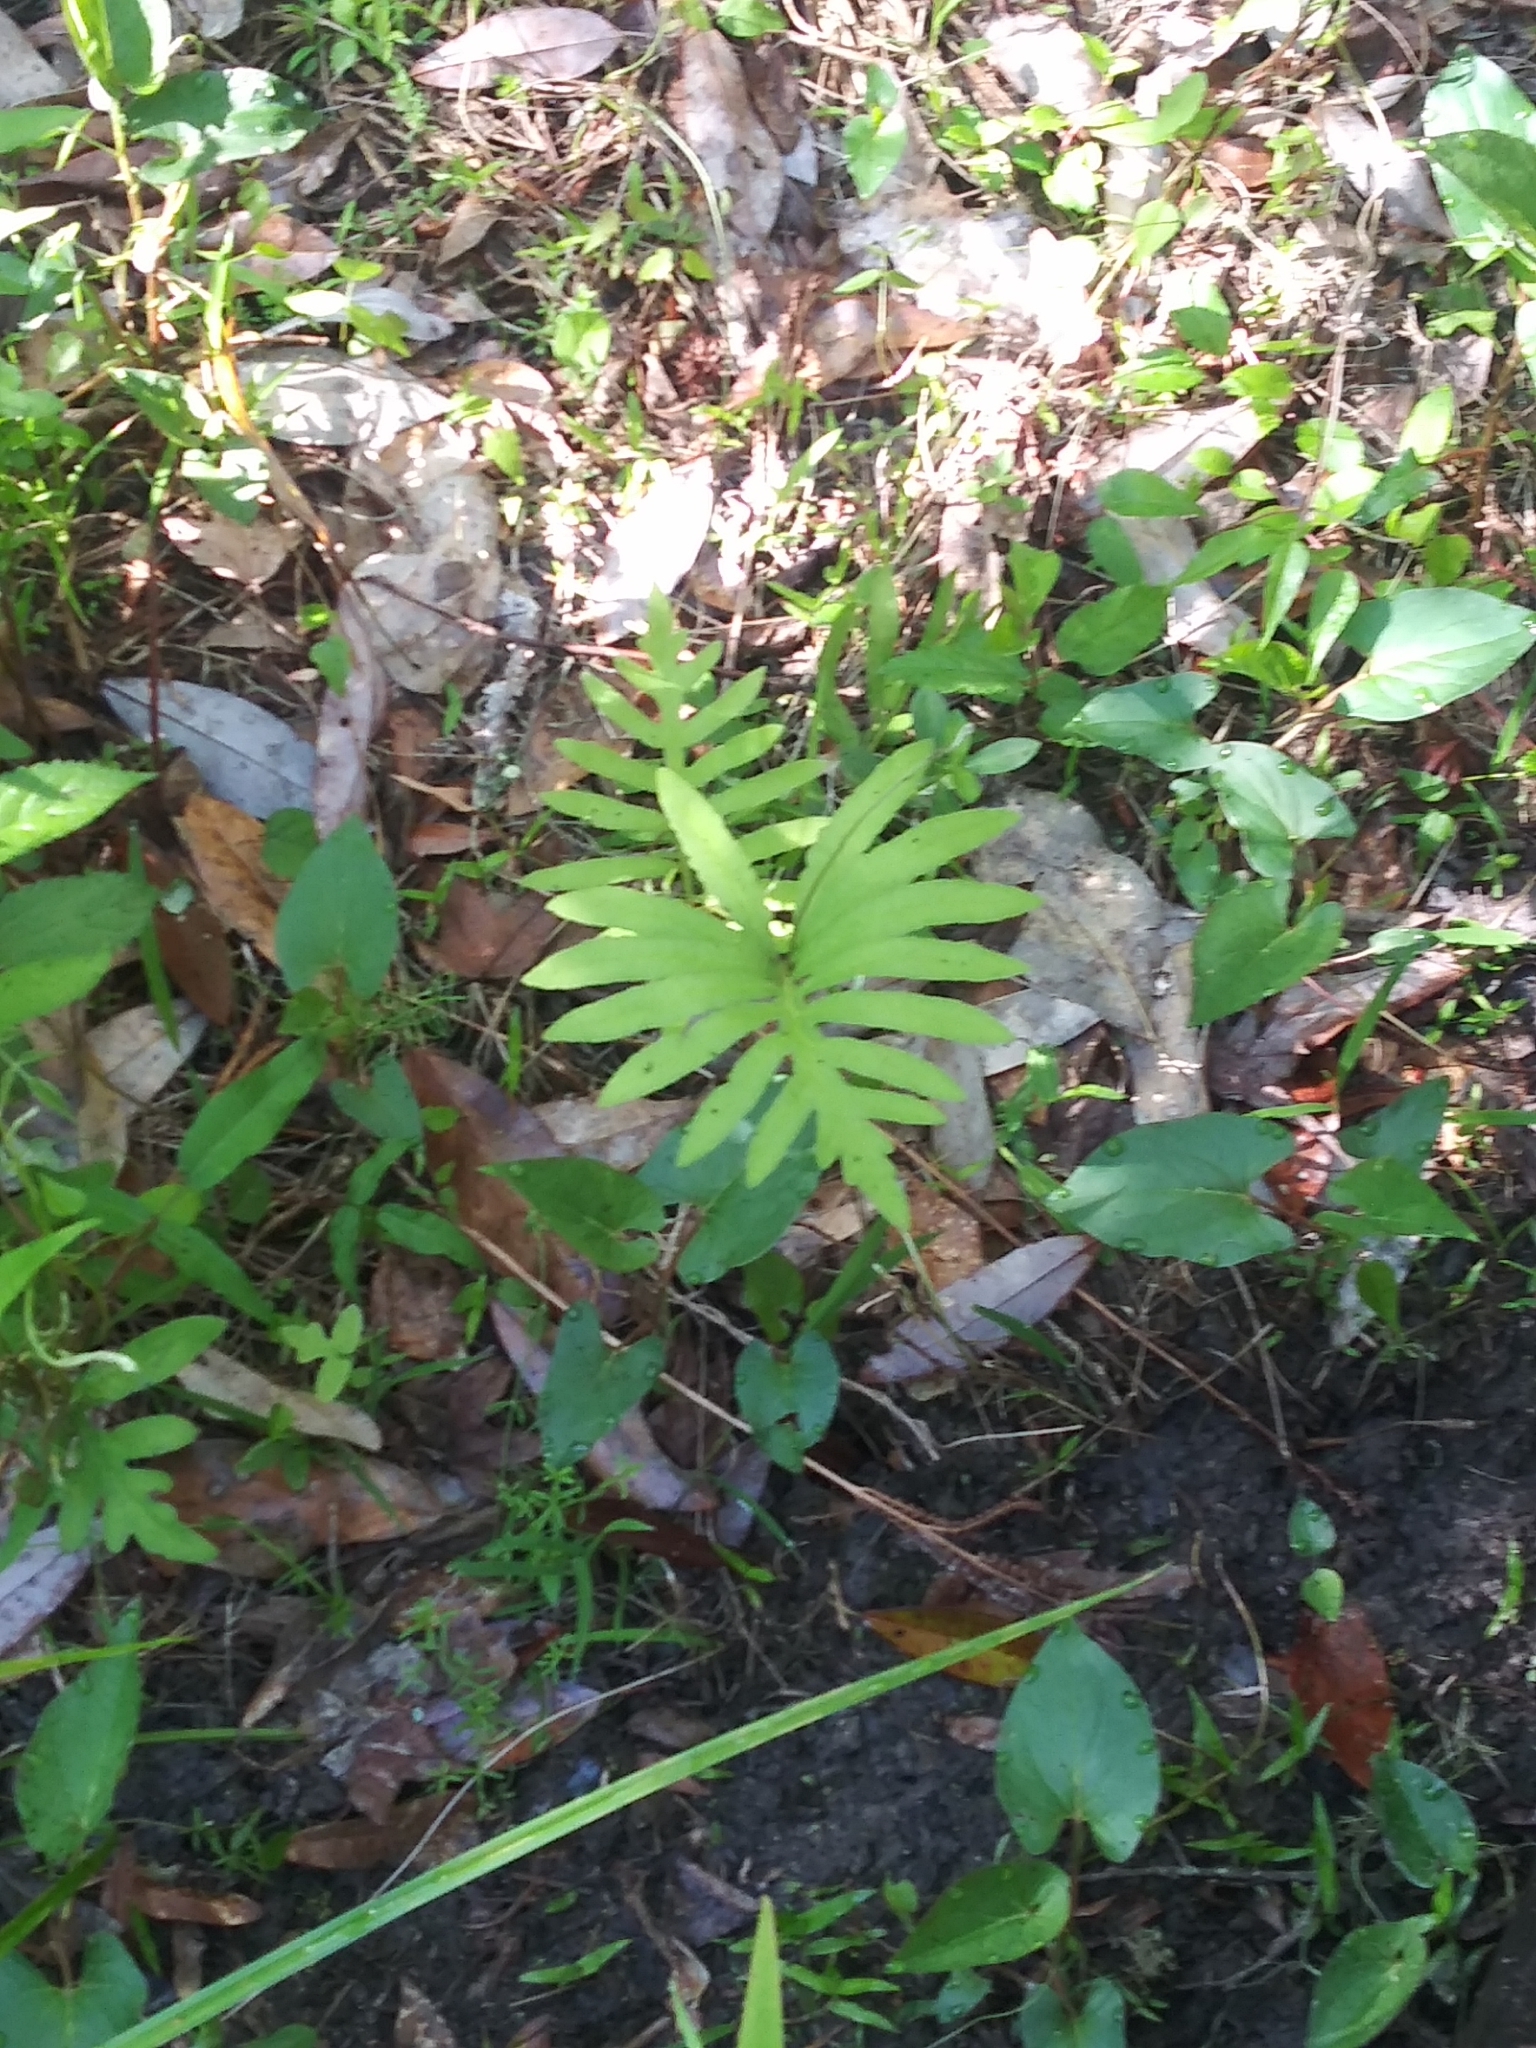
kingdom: Plantae
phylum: Tracheophyta
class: Polypodiopsida
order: Polypodiales
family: Onocleaceae
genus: Onoclea
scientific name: Onoclea sensibilis
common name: Sensitive fern
